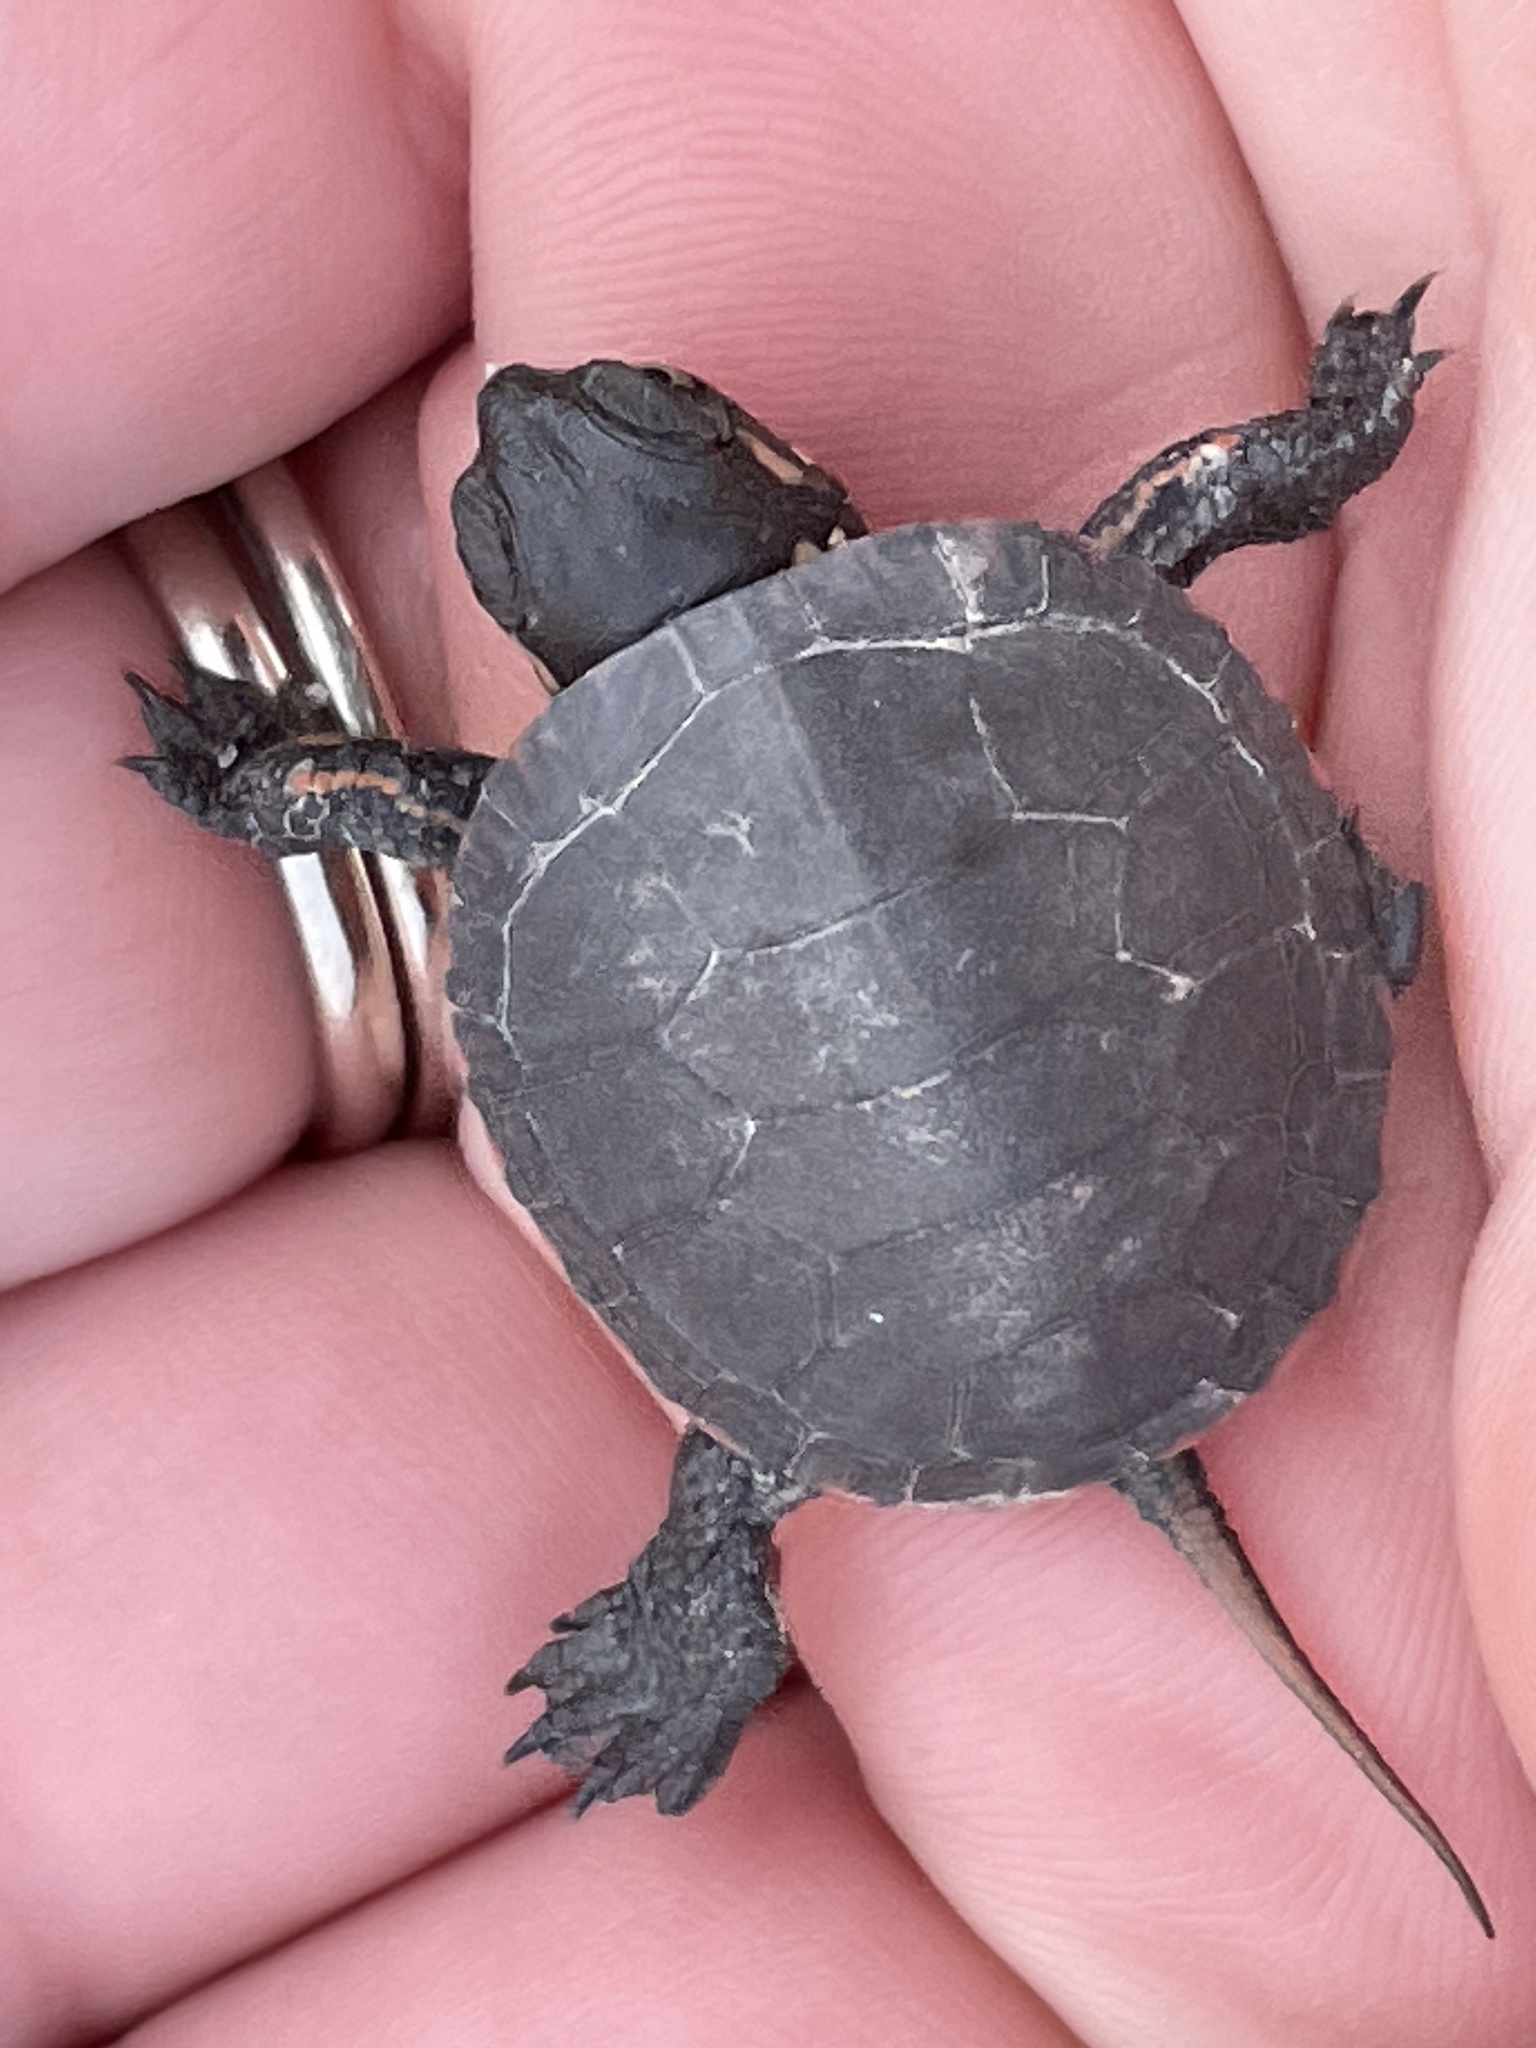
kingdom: Animalia
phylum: Chordata
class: Testudines
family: Emydidae
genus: Chrysemys
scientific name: Chrysemys picta
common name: Painted turtle
